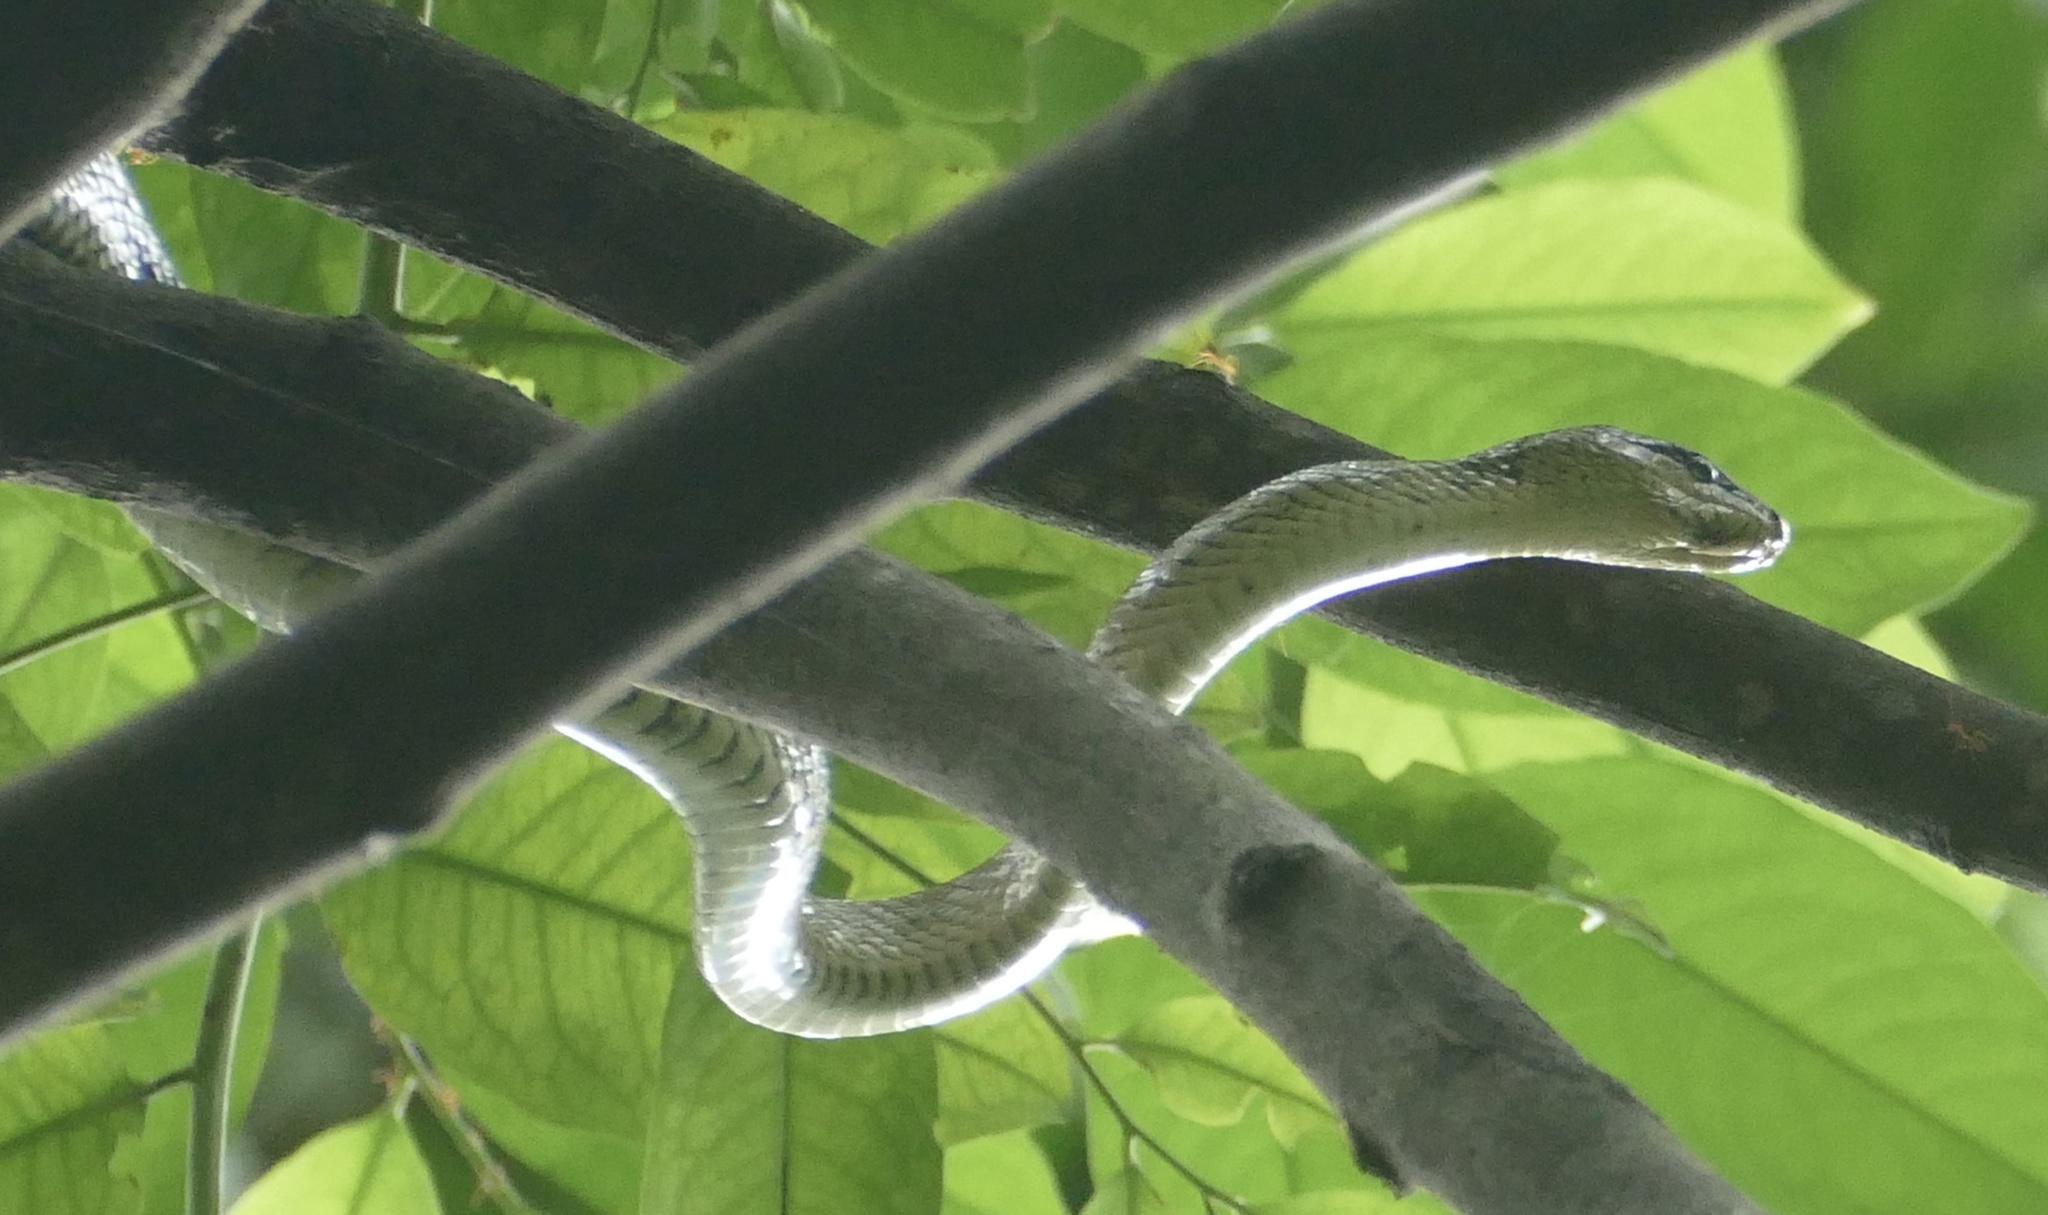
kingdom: Animalia
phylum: Chordata
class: Squamata
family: Colubridae
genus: Gonyosoma
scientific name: Gonyosoma jansenii
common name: Celebes black-tailed ratsnake
